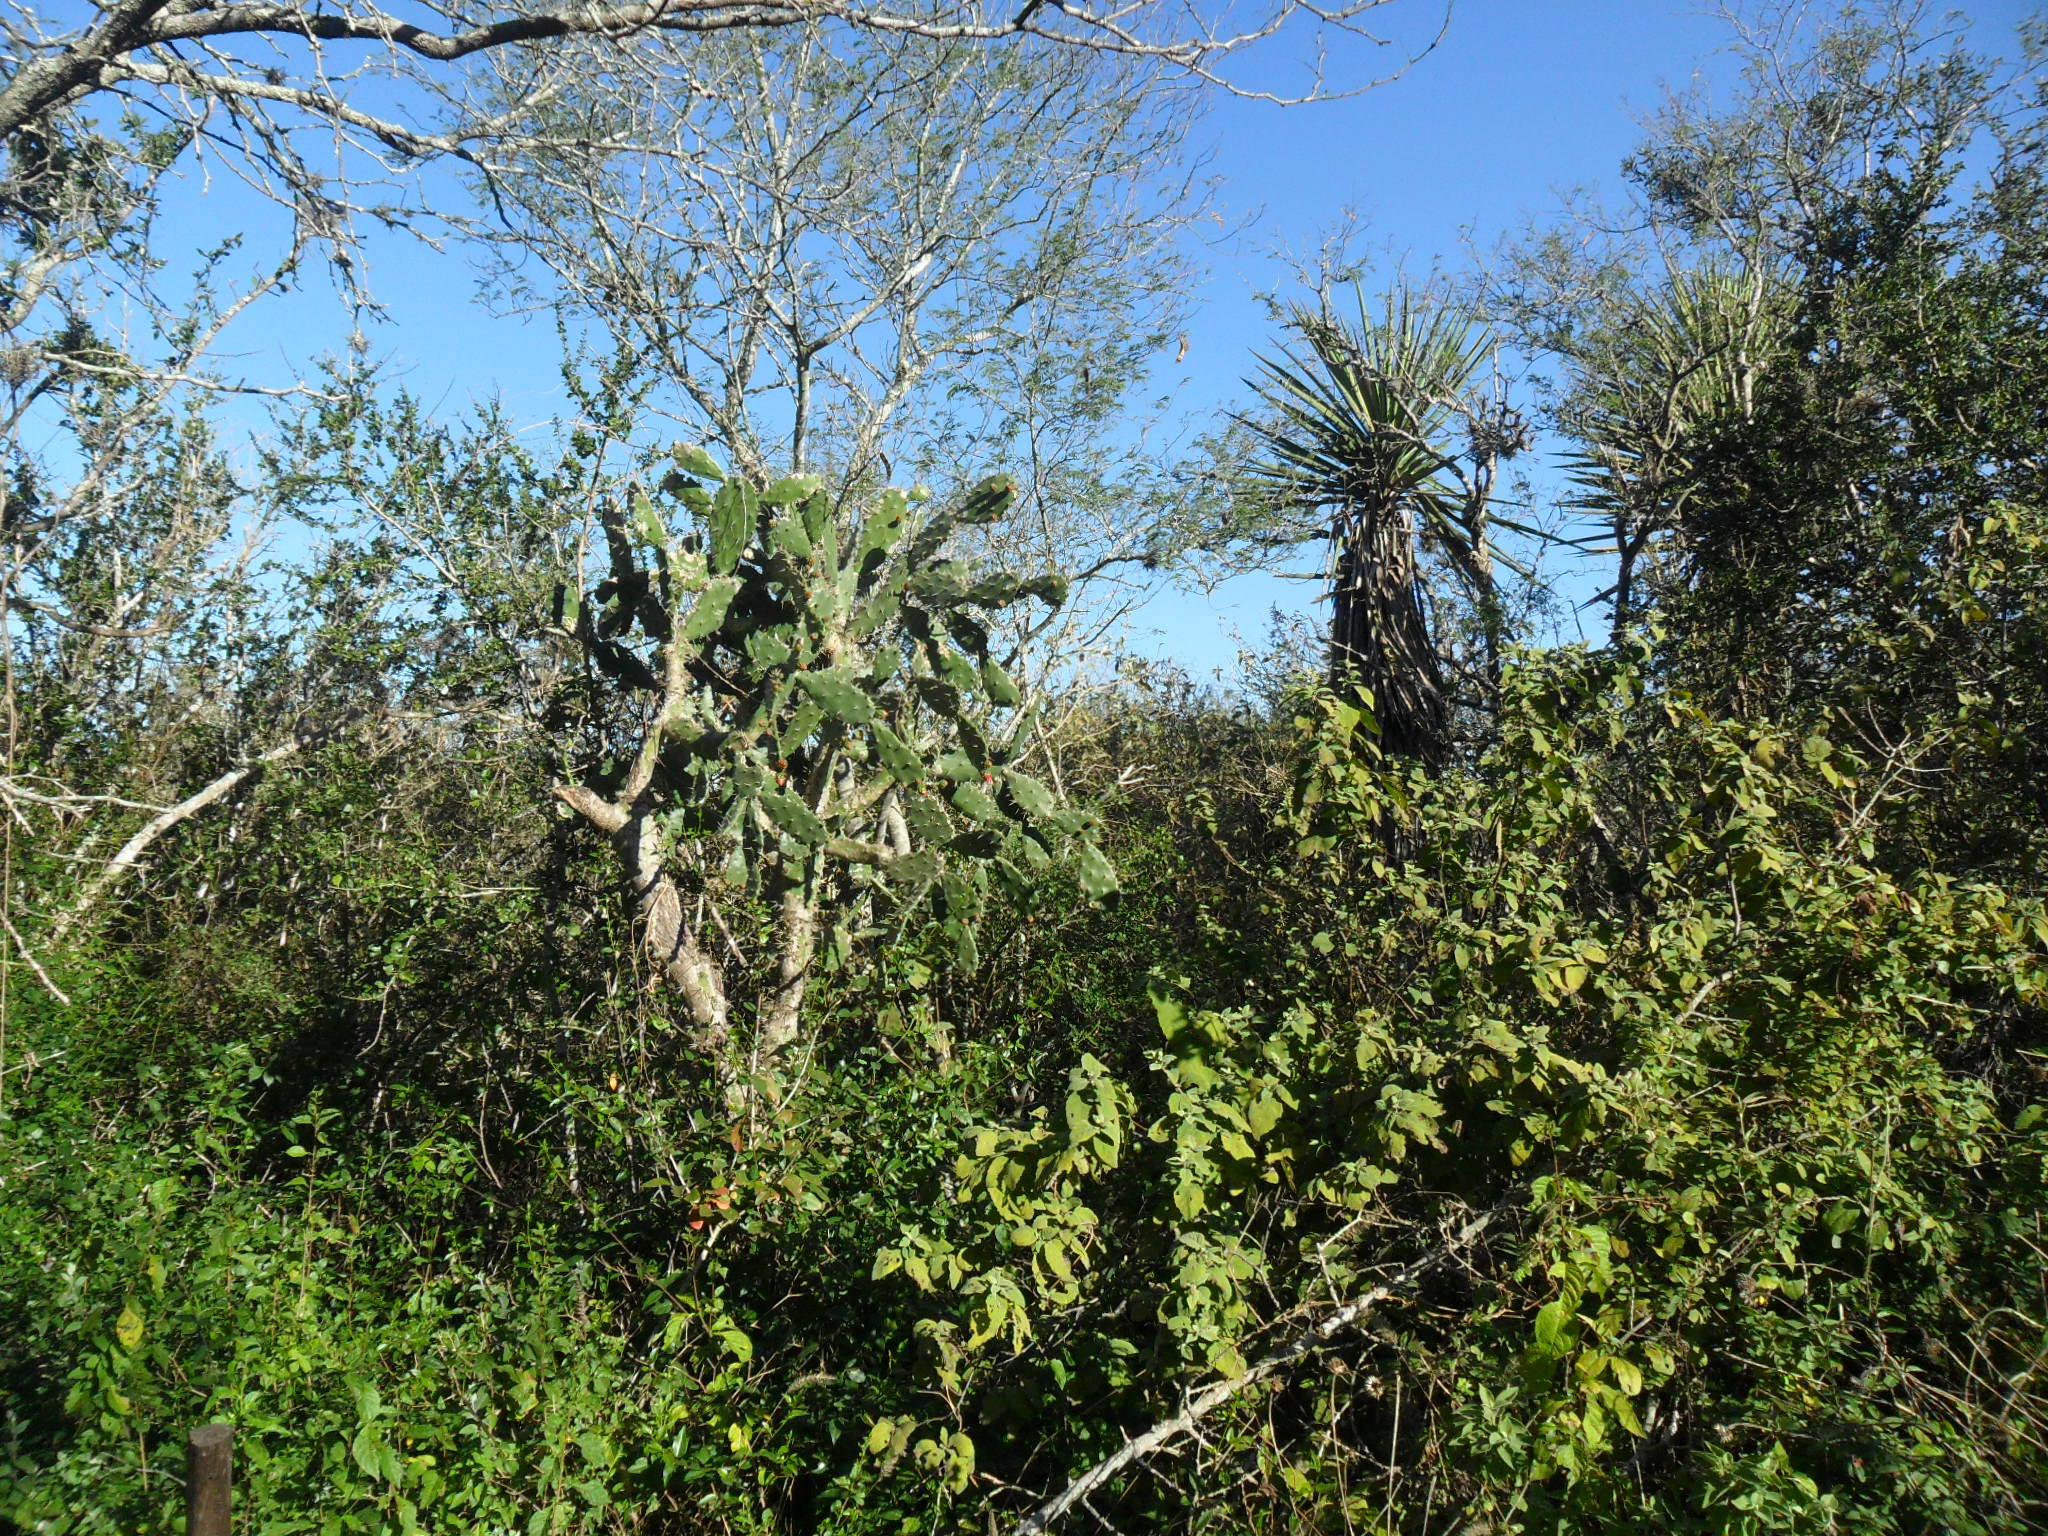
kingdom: Plantae
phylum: Tracheophyta
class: Magnoliopsida
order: Caryophyllales
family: Cactaceae
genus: Opuntia
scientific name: Opuntia dejecta
